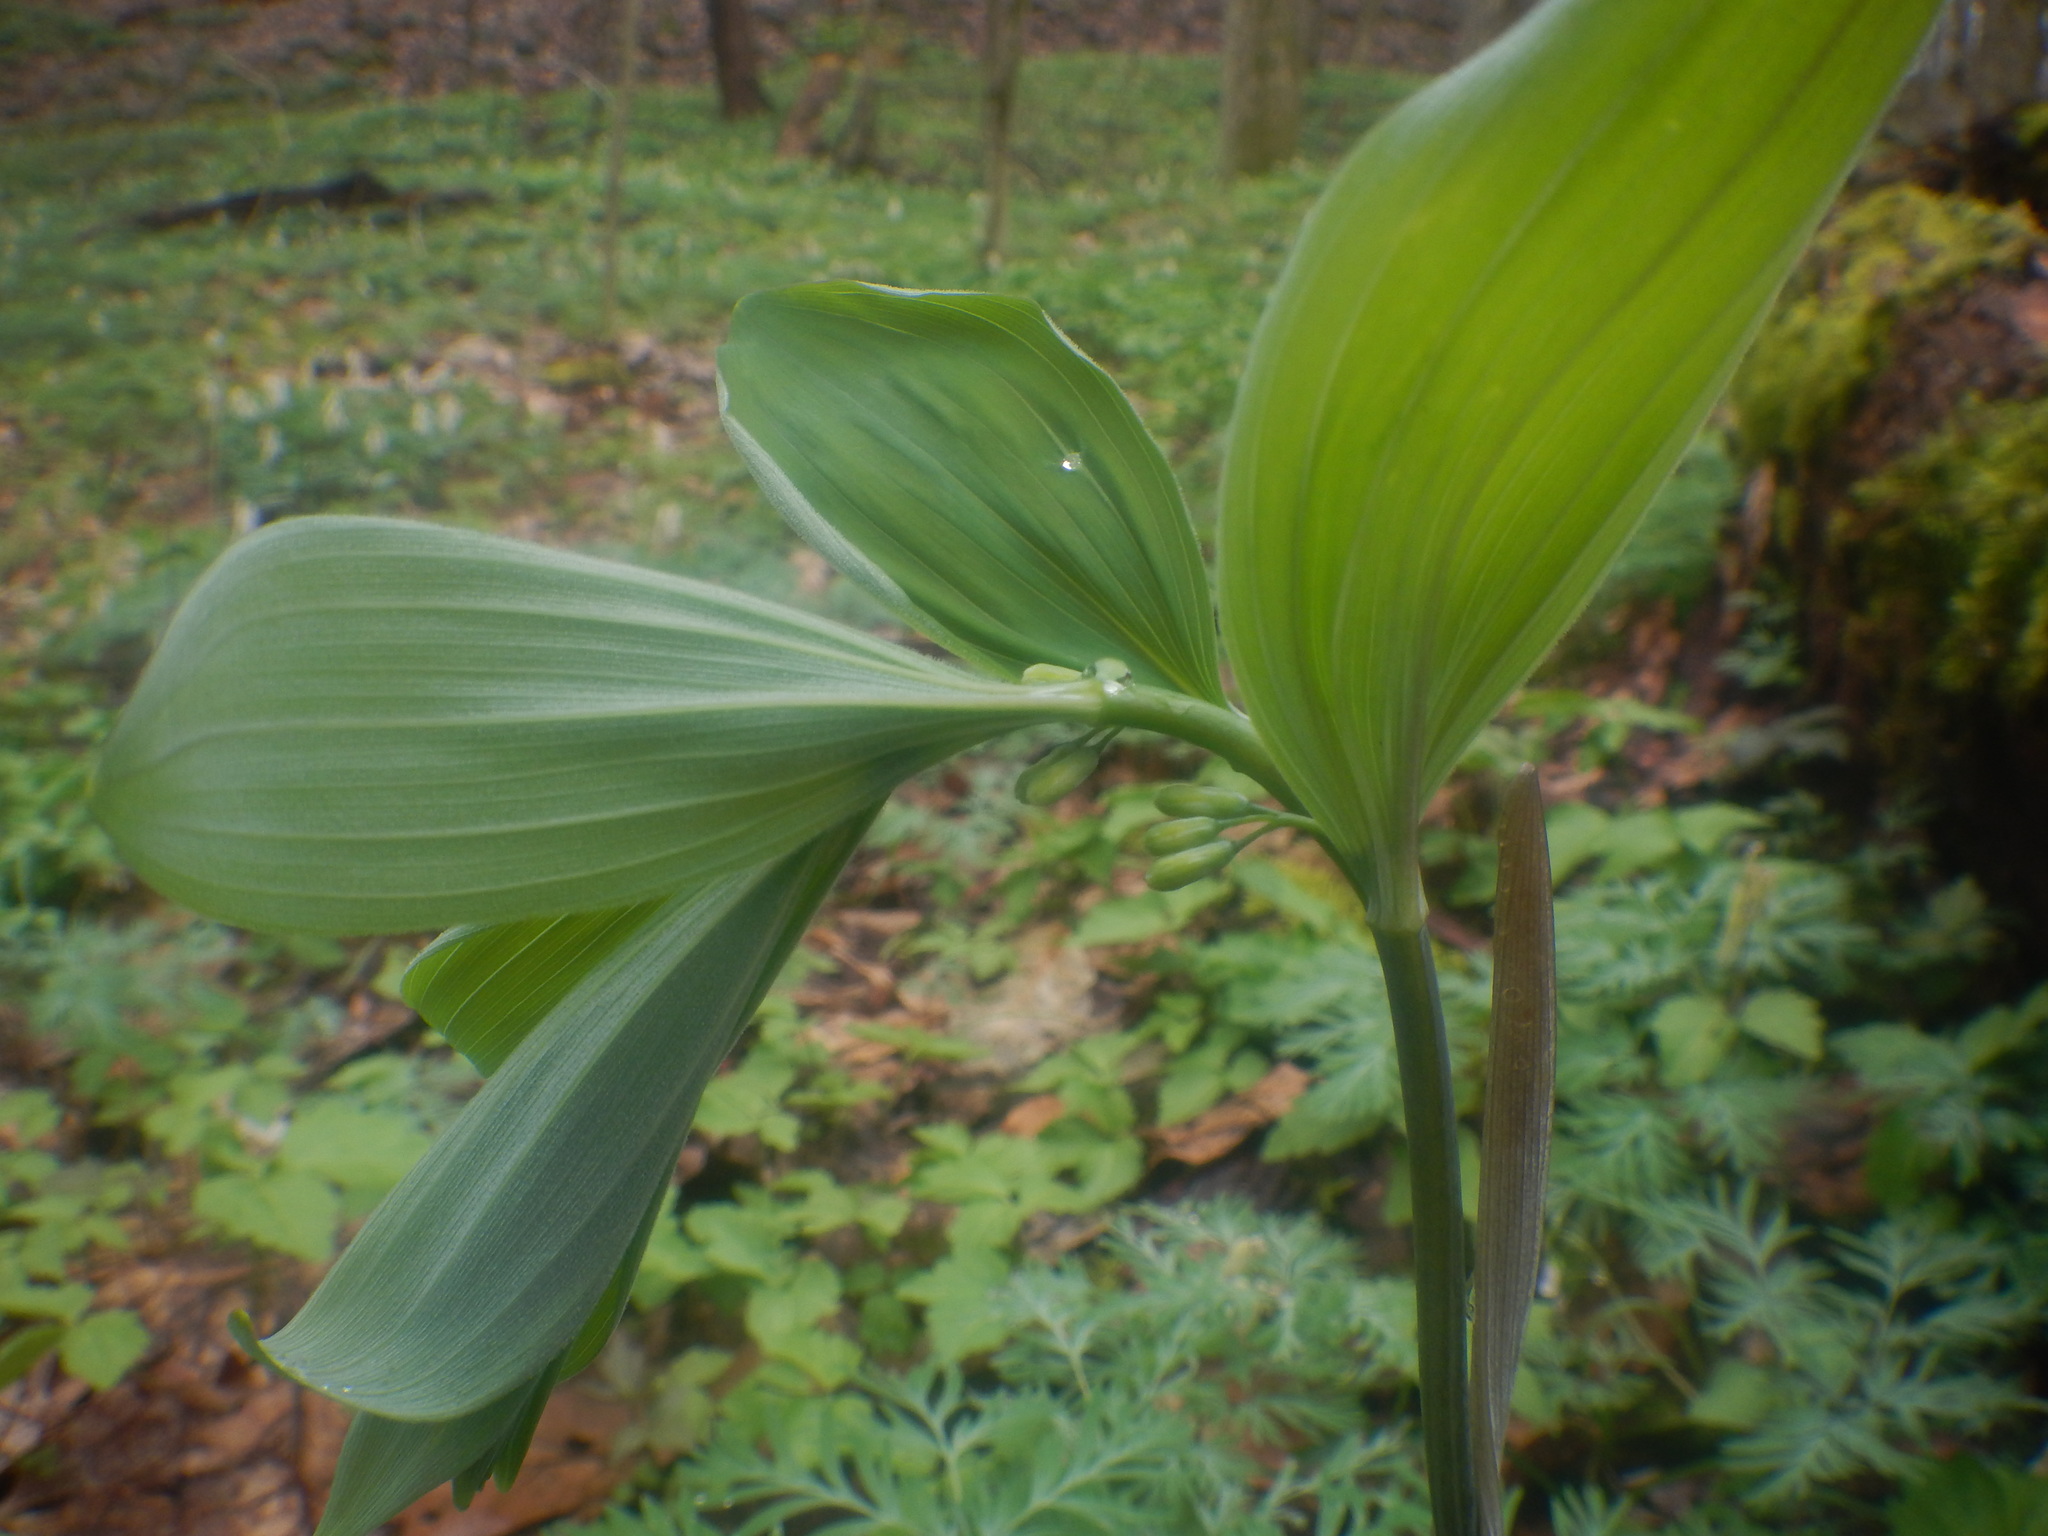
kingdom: Plantae
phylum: Tracheophyta
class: Liliopsida
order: Asparagales
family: Asparagaceae
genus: Polygonatum
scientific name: Polygonatum pubescens
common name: Downy solomon's seal
